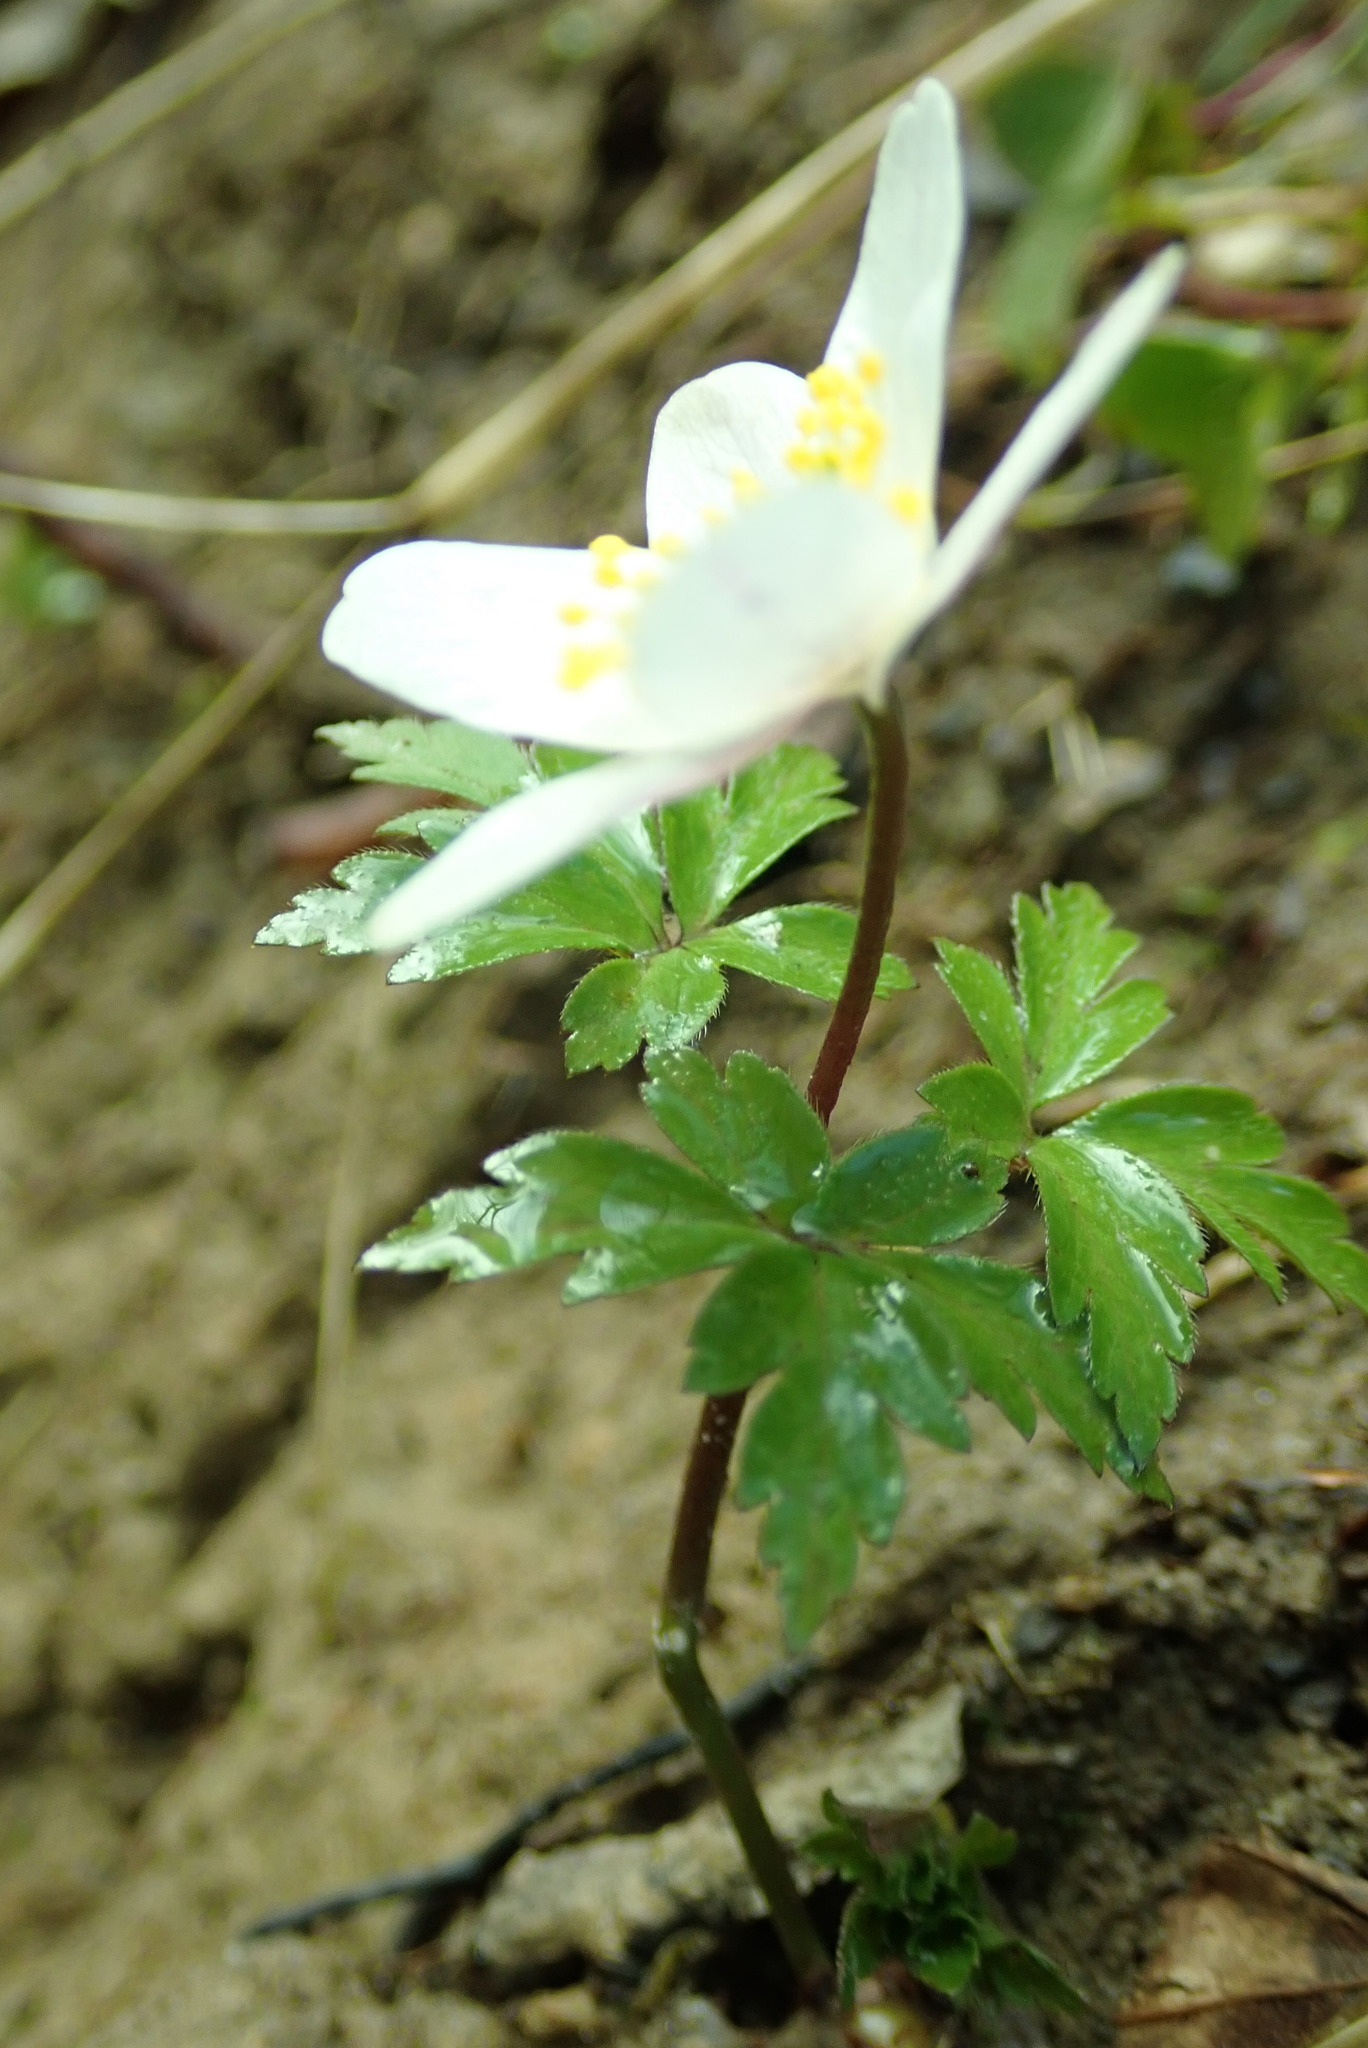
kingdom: Plantae
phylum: Tracheophyta
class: Magnoliopsida
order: Ranunculales
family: Ranunculaceae
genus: Anemone
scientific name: Anemone nemorosa
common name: Wood anemone
